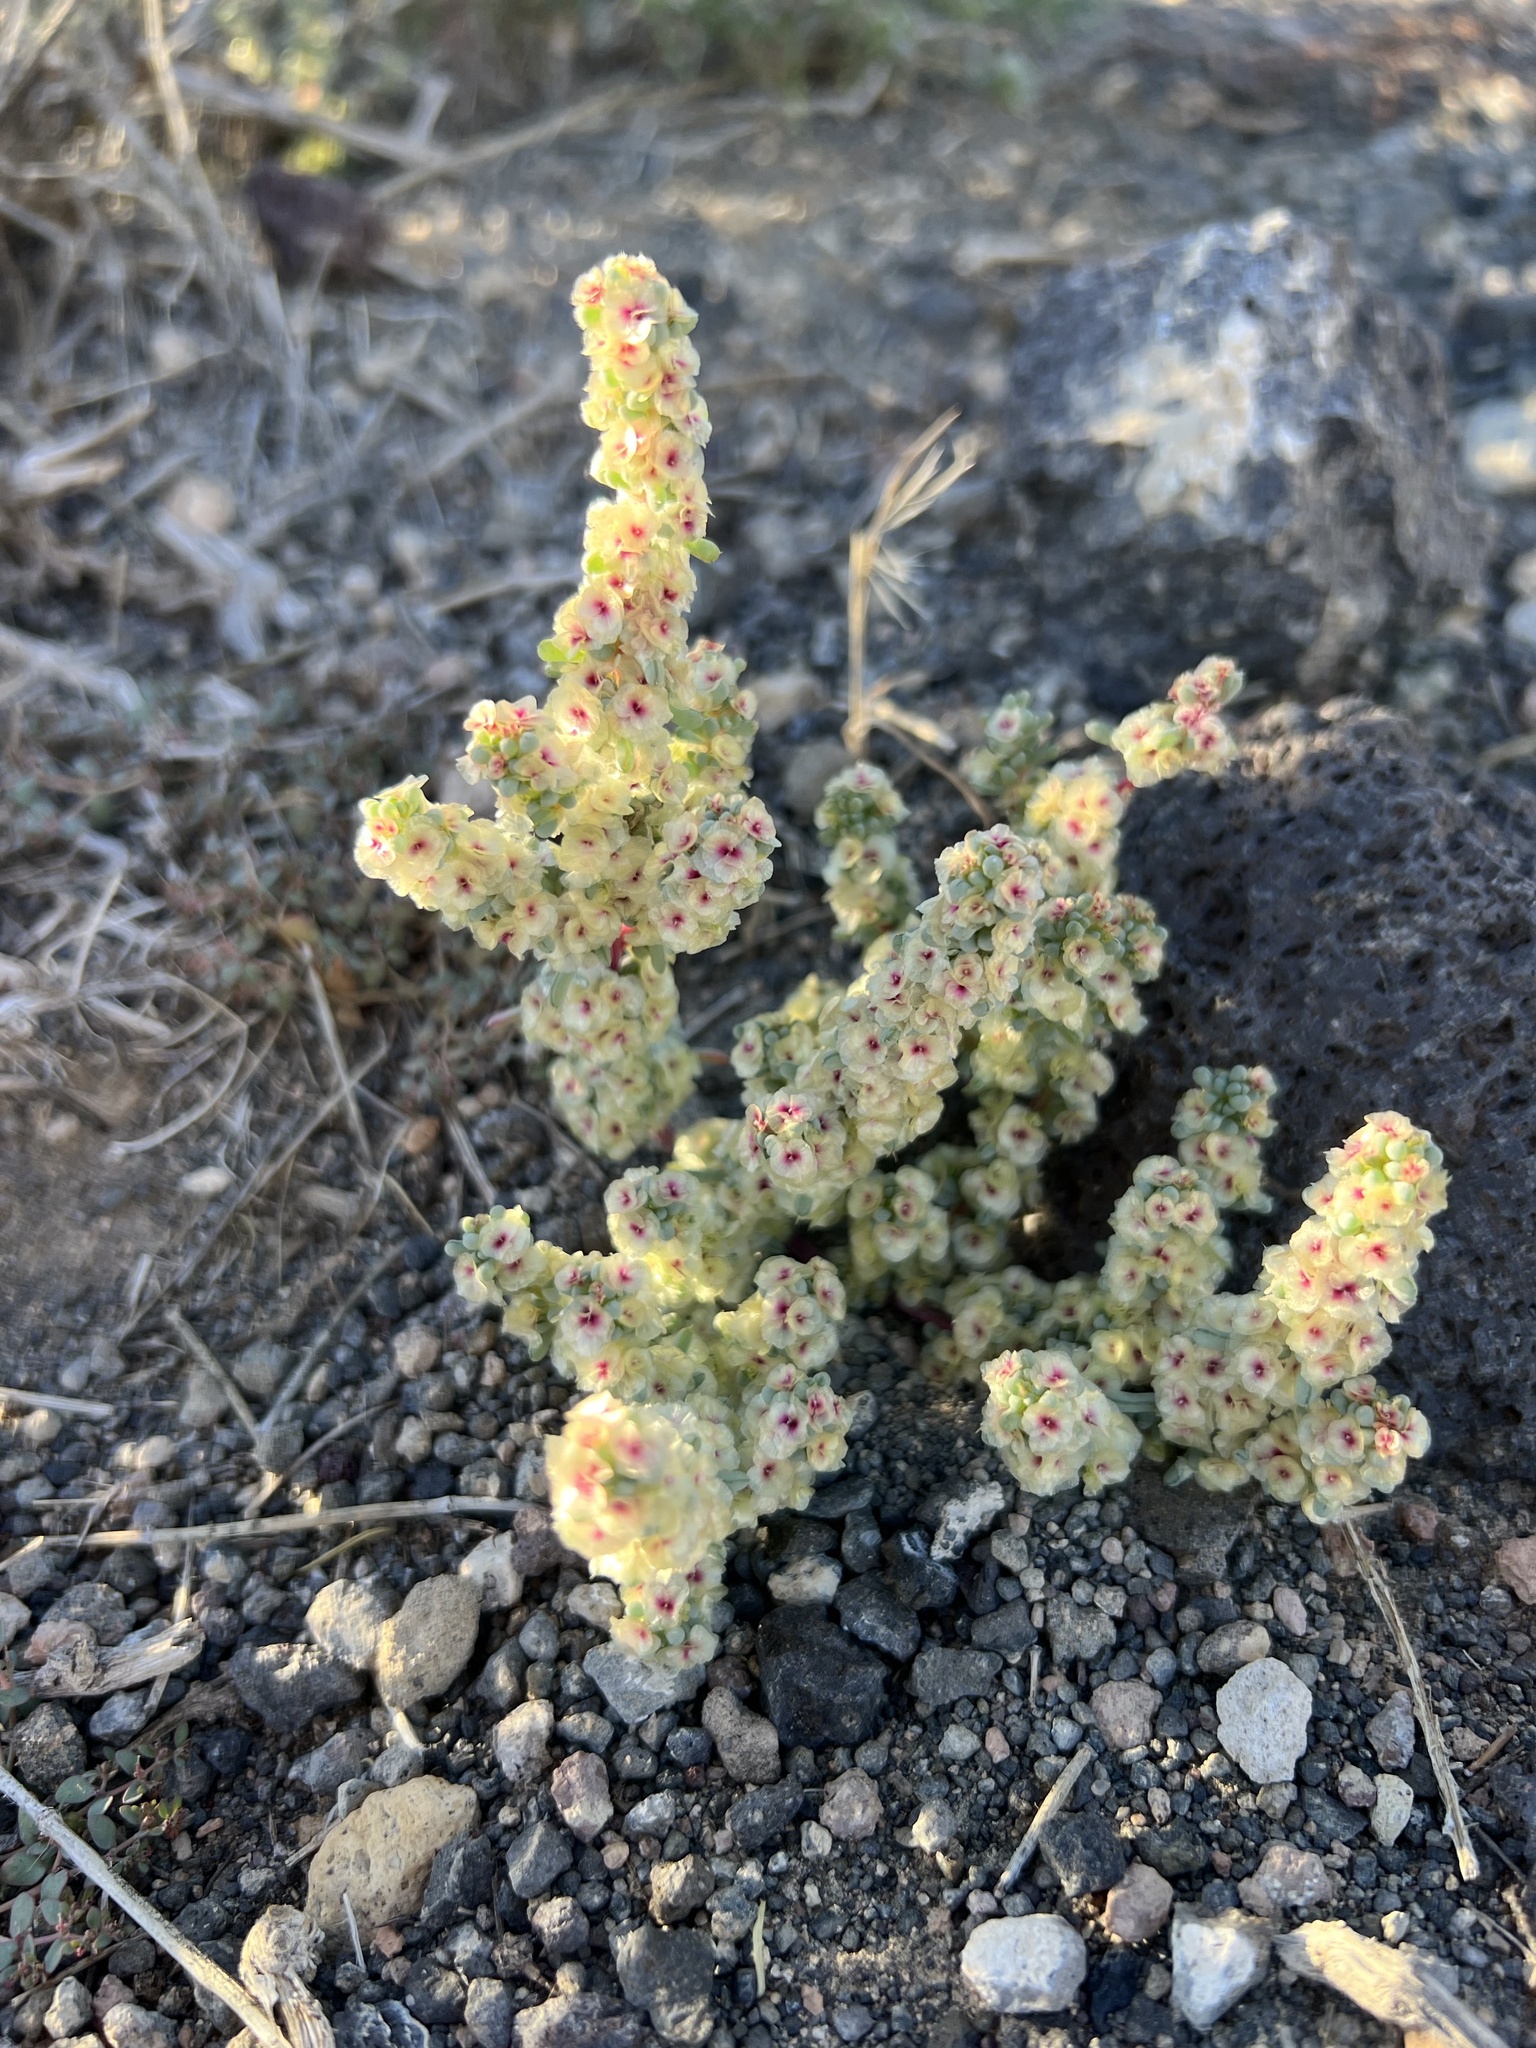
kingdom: Plantae
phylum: Tracheophyta
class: Magnoliopsida
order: Caryophyllales
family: Amaranthaceae
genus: Halogeton
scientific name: Halogeton glomeratus
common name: Saltlover
